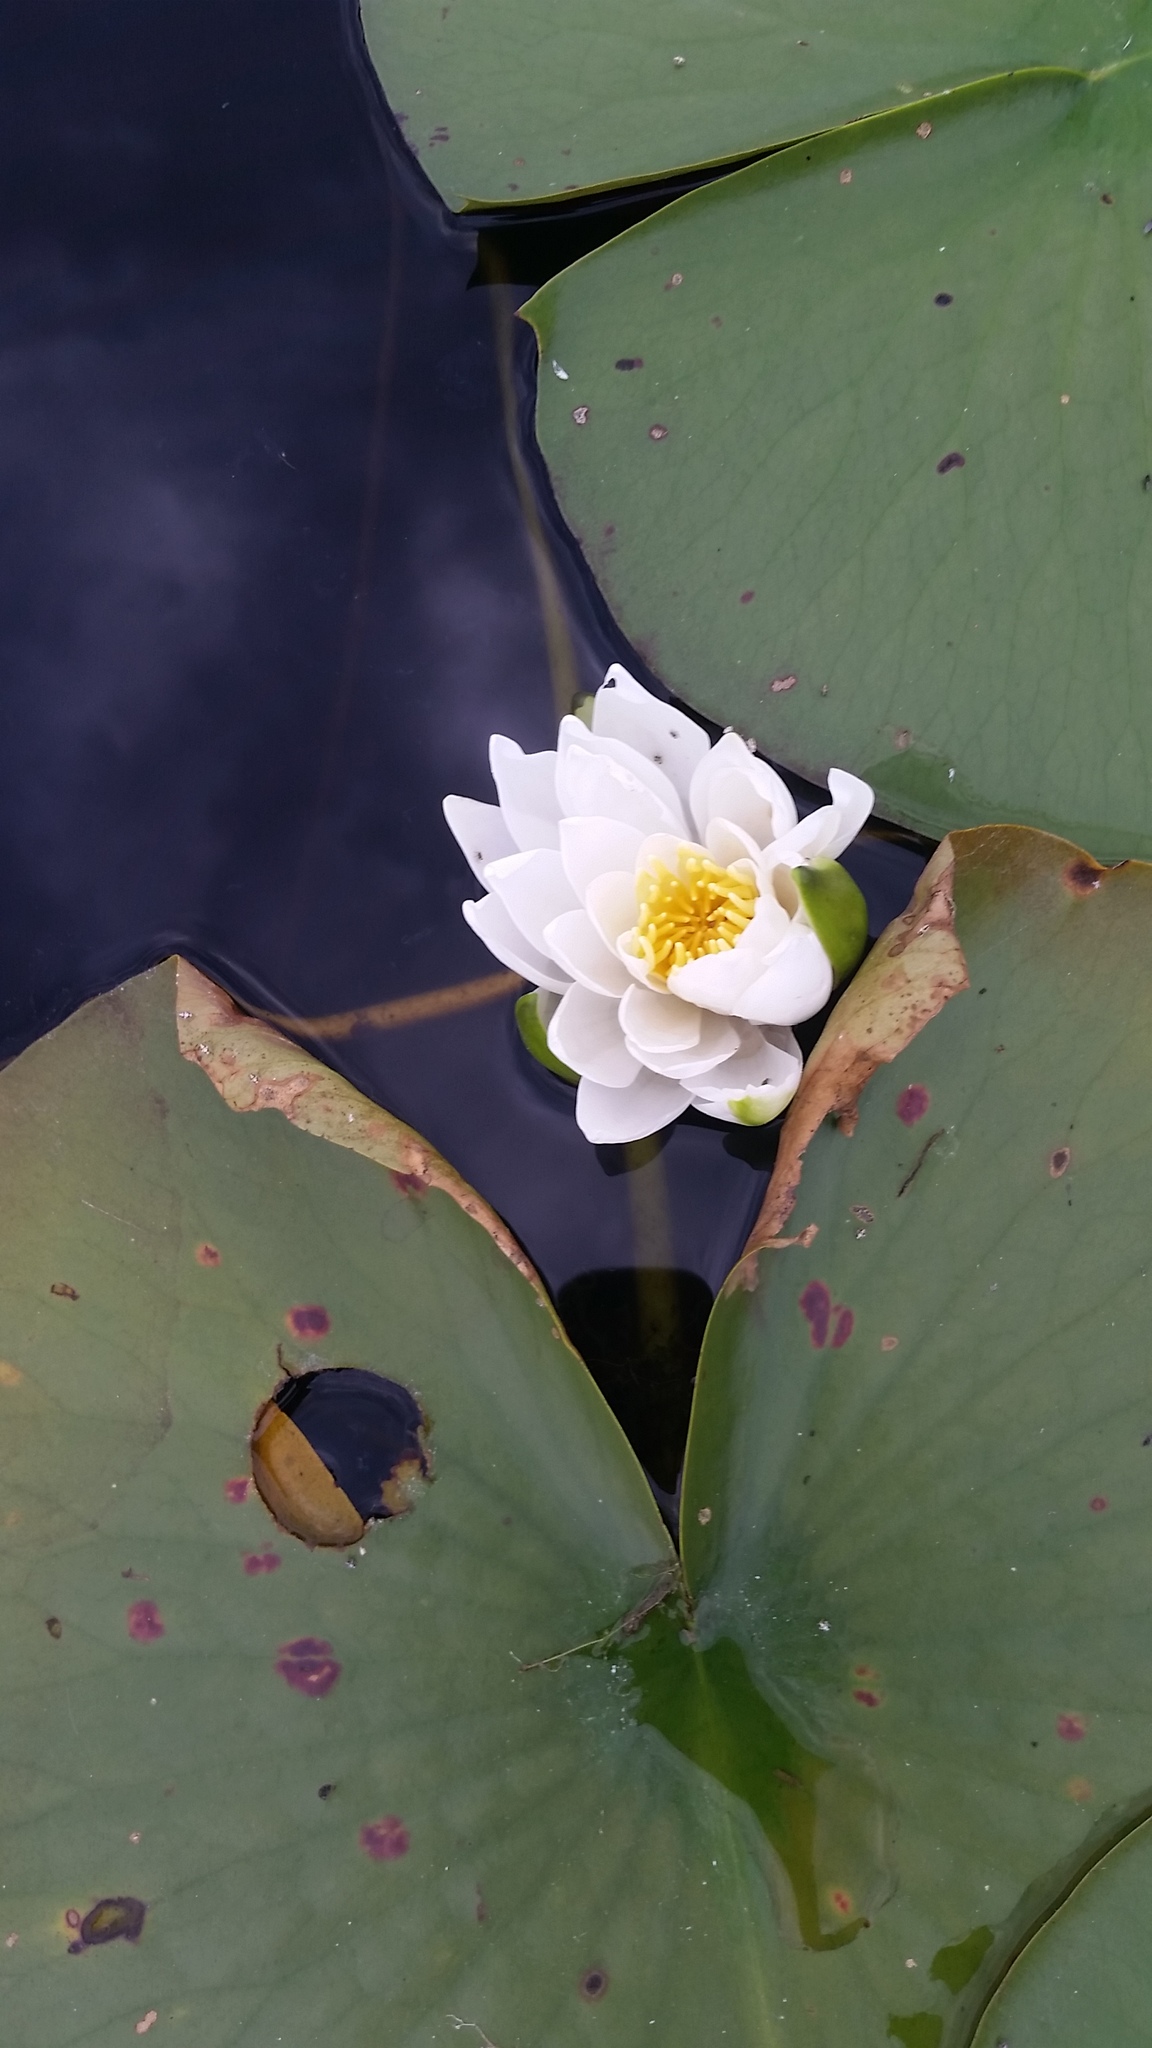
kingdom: Plantae
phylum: Tracheophyta
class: Magnoliopsida
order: Nymphaeales
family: Nymphaeaceae
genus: Nymphaea
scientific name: Nymphaea odorata
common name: Fragrant water-lily
